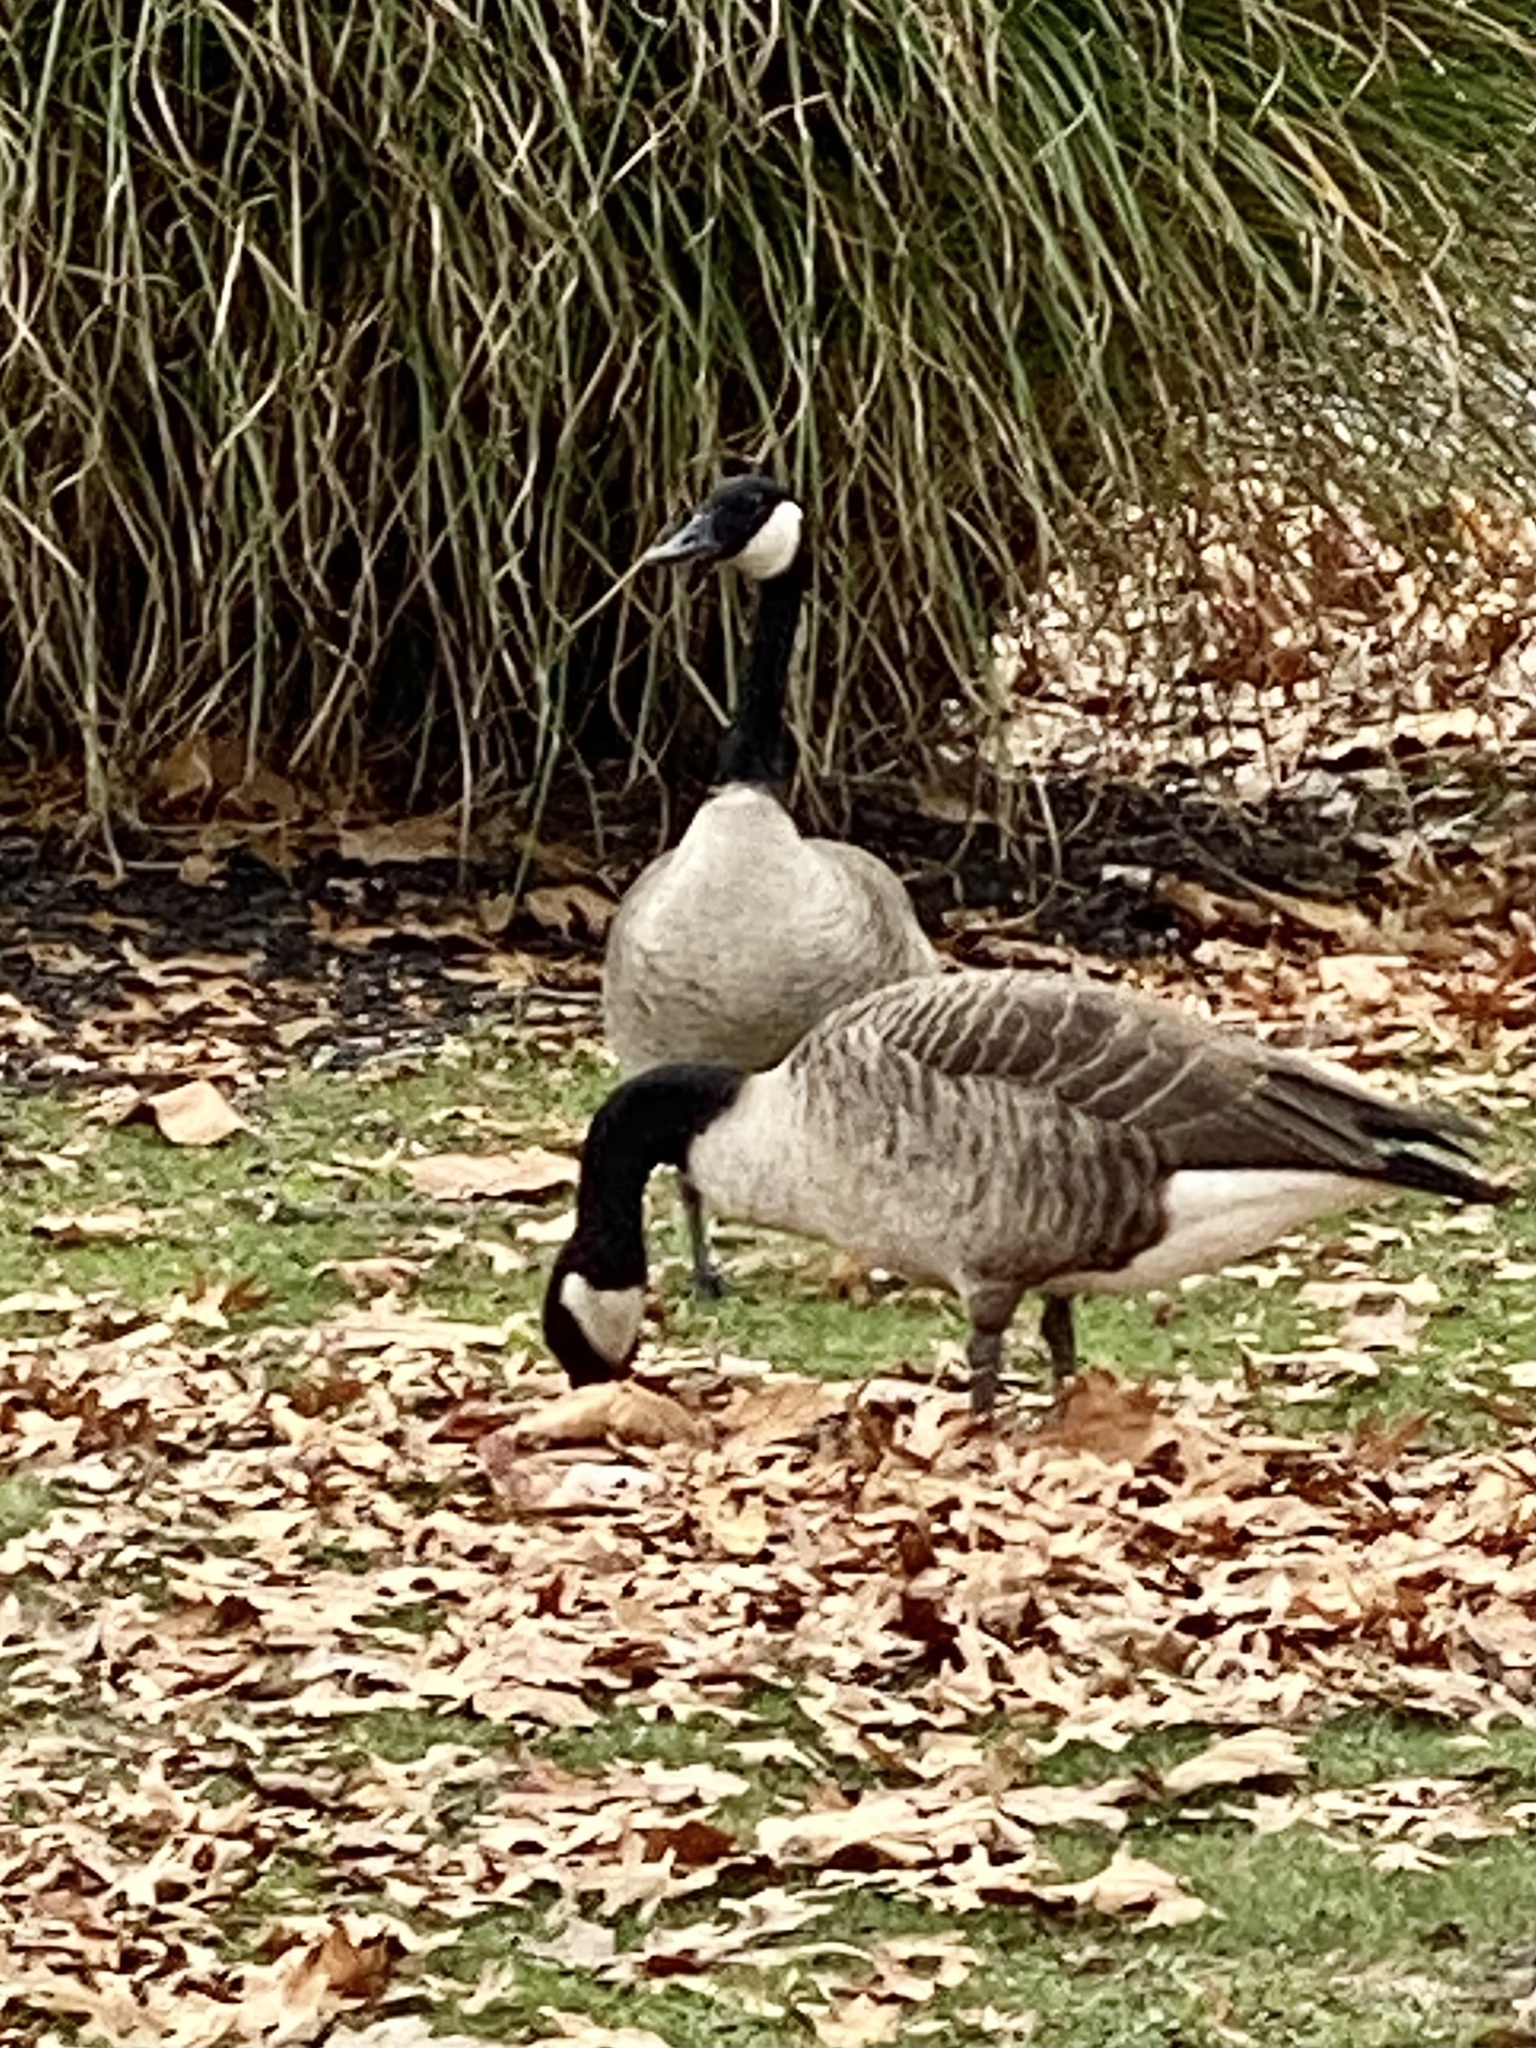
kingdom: Animalia
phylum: Chordata
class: Aves
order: Anseriformes
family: Anatidae
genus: Branta
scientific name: Branta canadensis
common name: Canada goose
